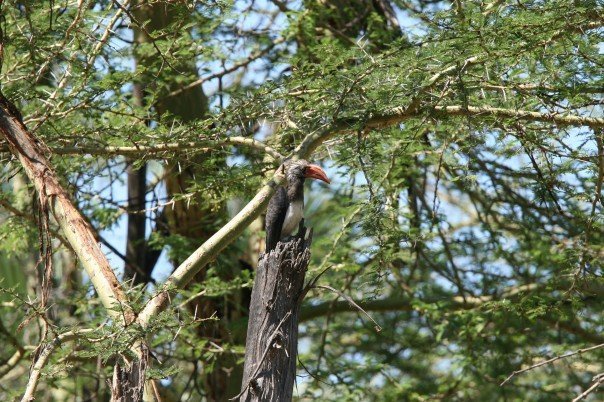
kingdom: Animalia
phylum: Chordata
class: Aves
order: Bucerotiformes
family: Bucerotidae
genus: Lophoceros
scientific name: Lophoceros alboterminatus
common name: Crowned hornbill
